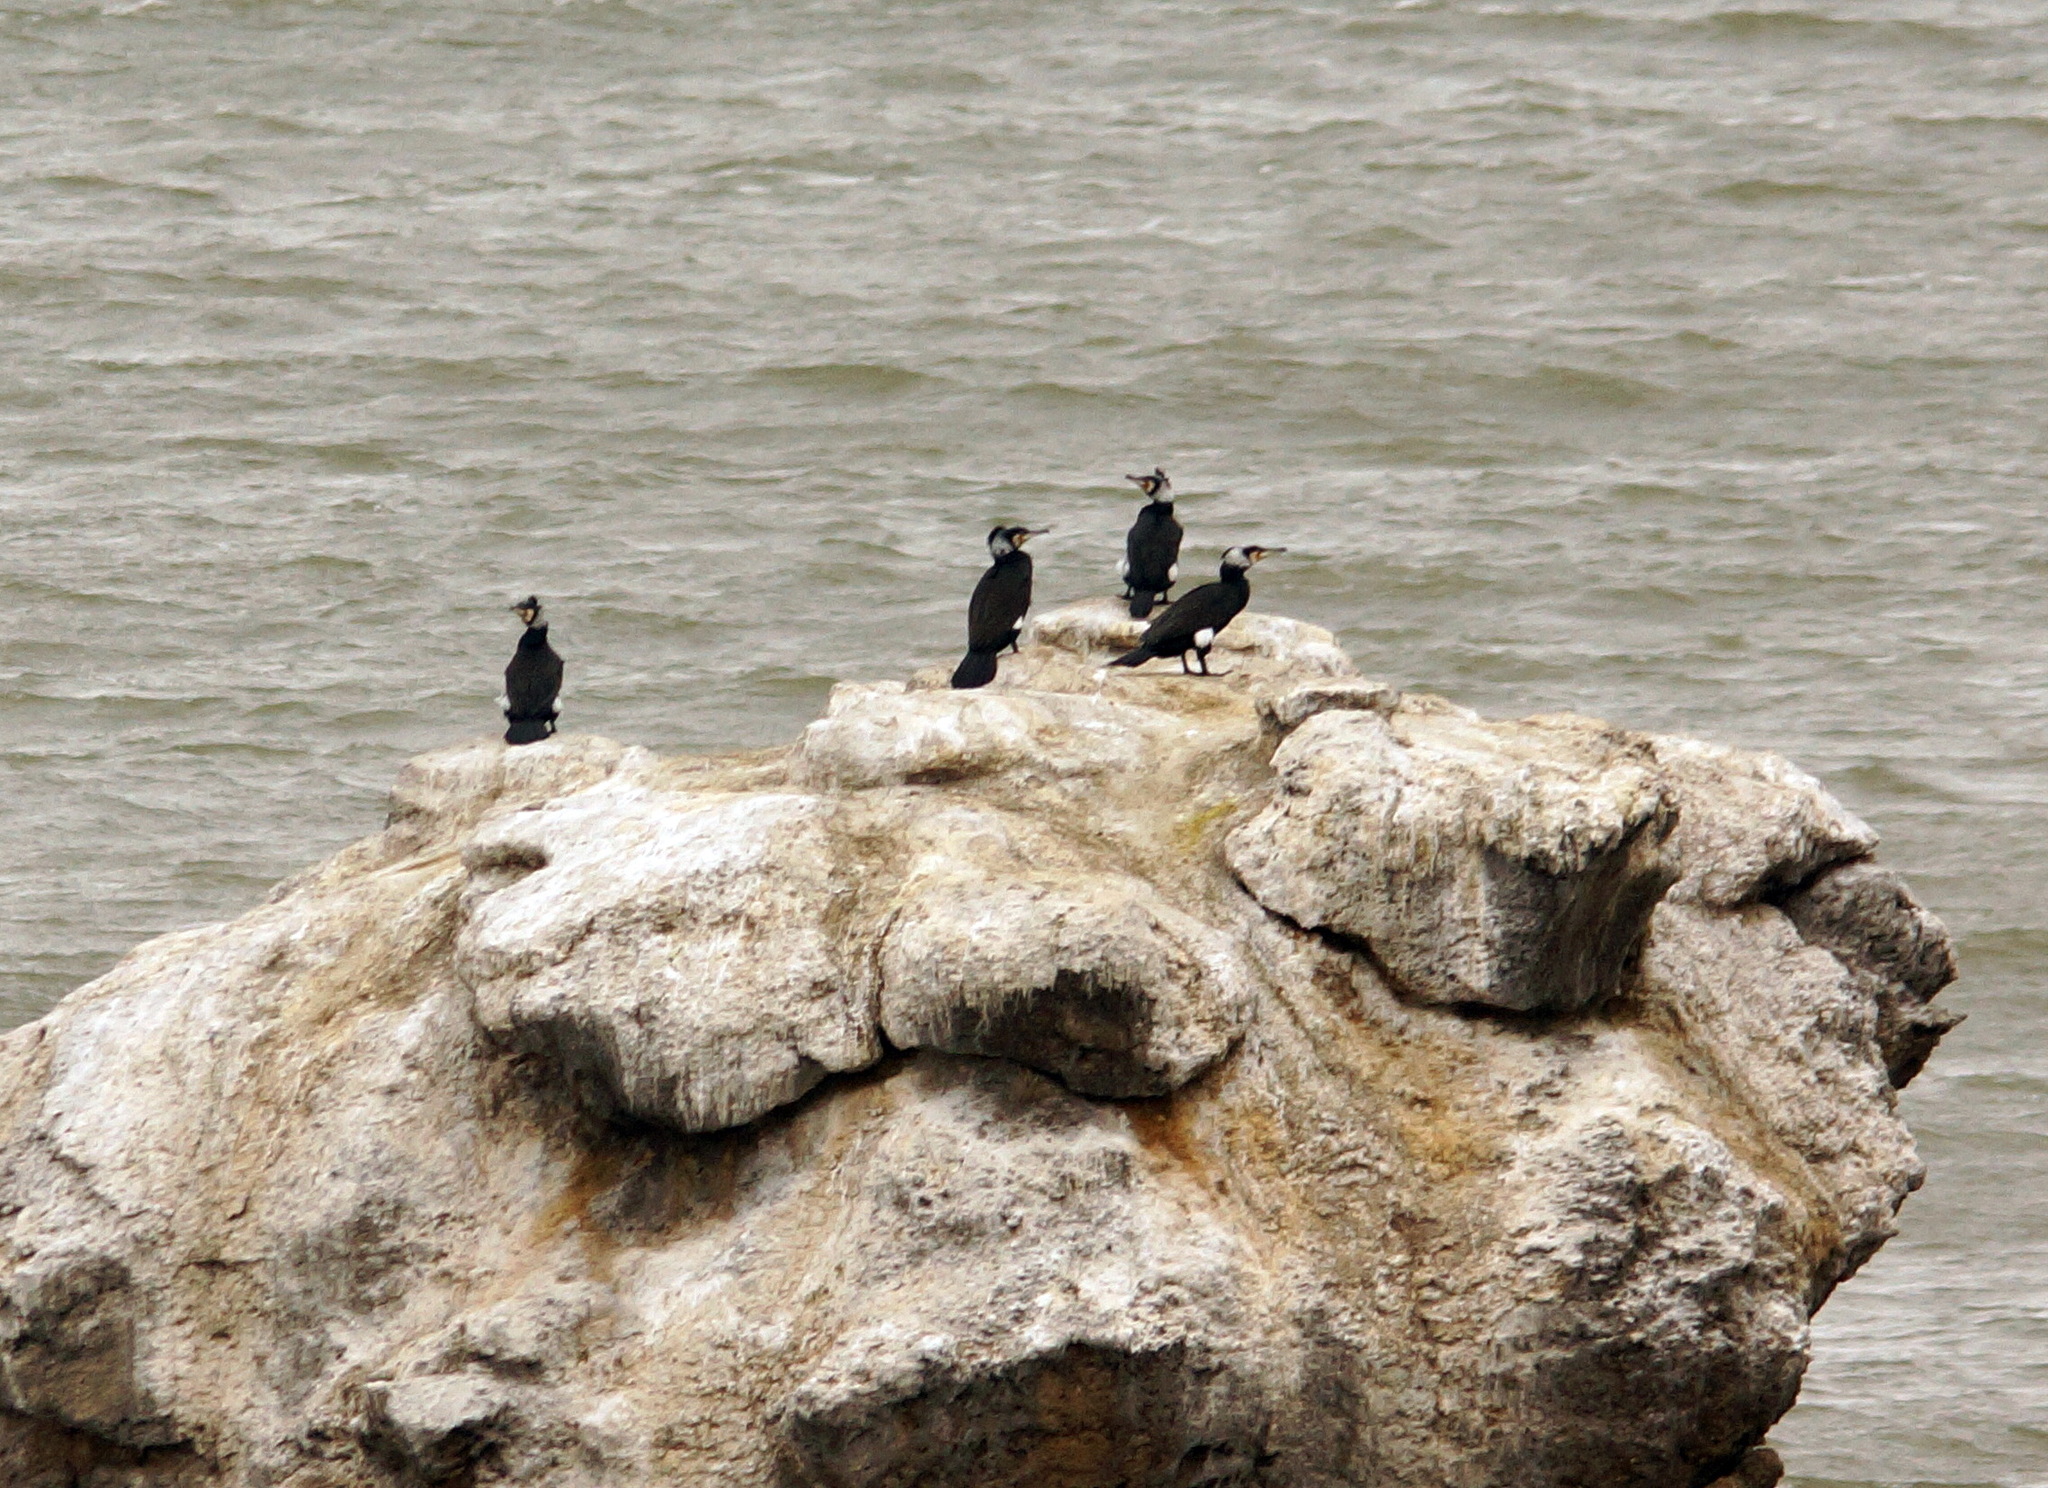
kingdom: Animalia
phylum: Chordata
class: Aves
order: Suliformes
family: Phalacrocoracidae
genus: Phalacrocorax
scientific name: Phalacrocorax carbo
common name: Great cormorant
